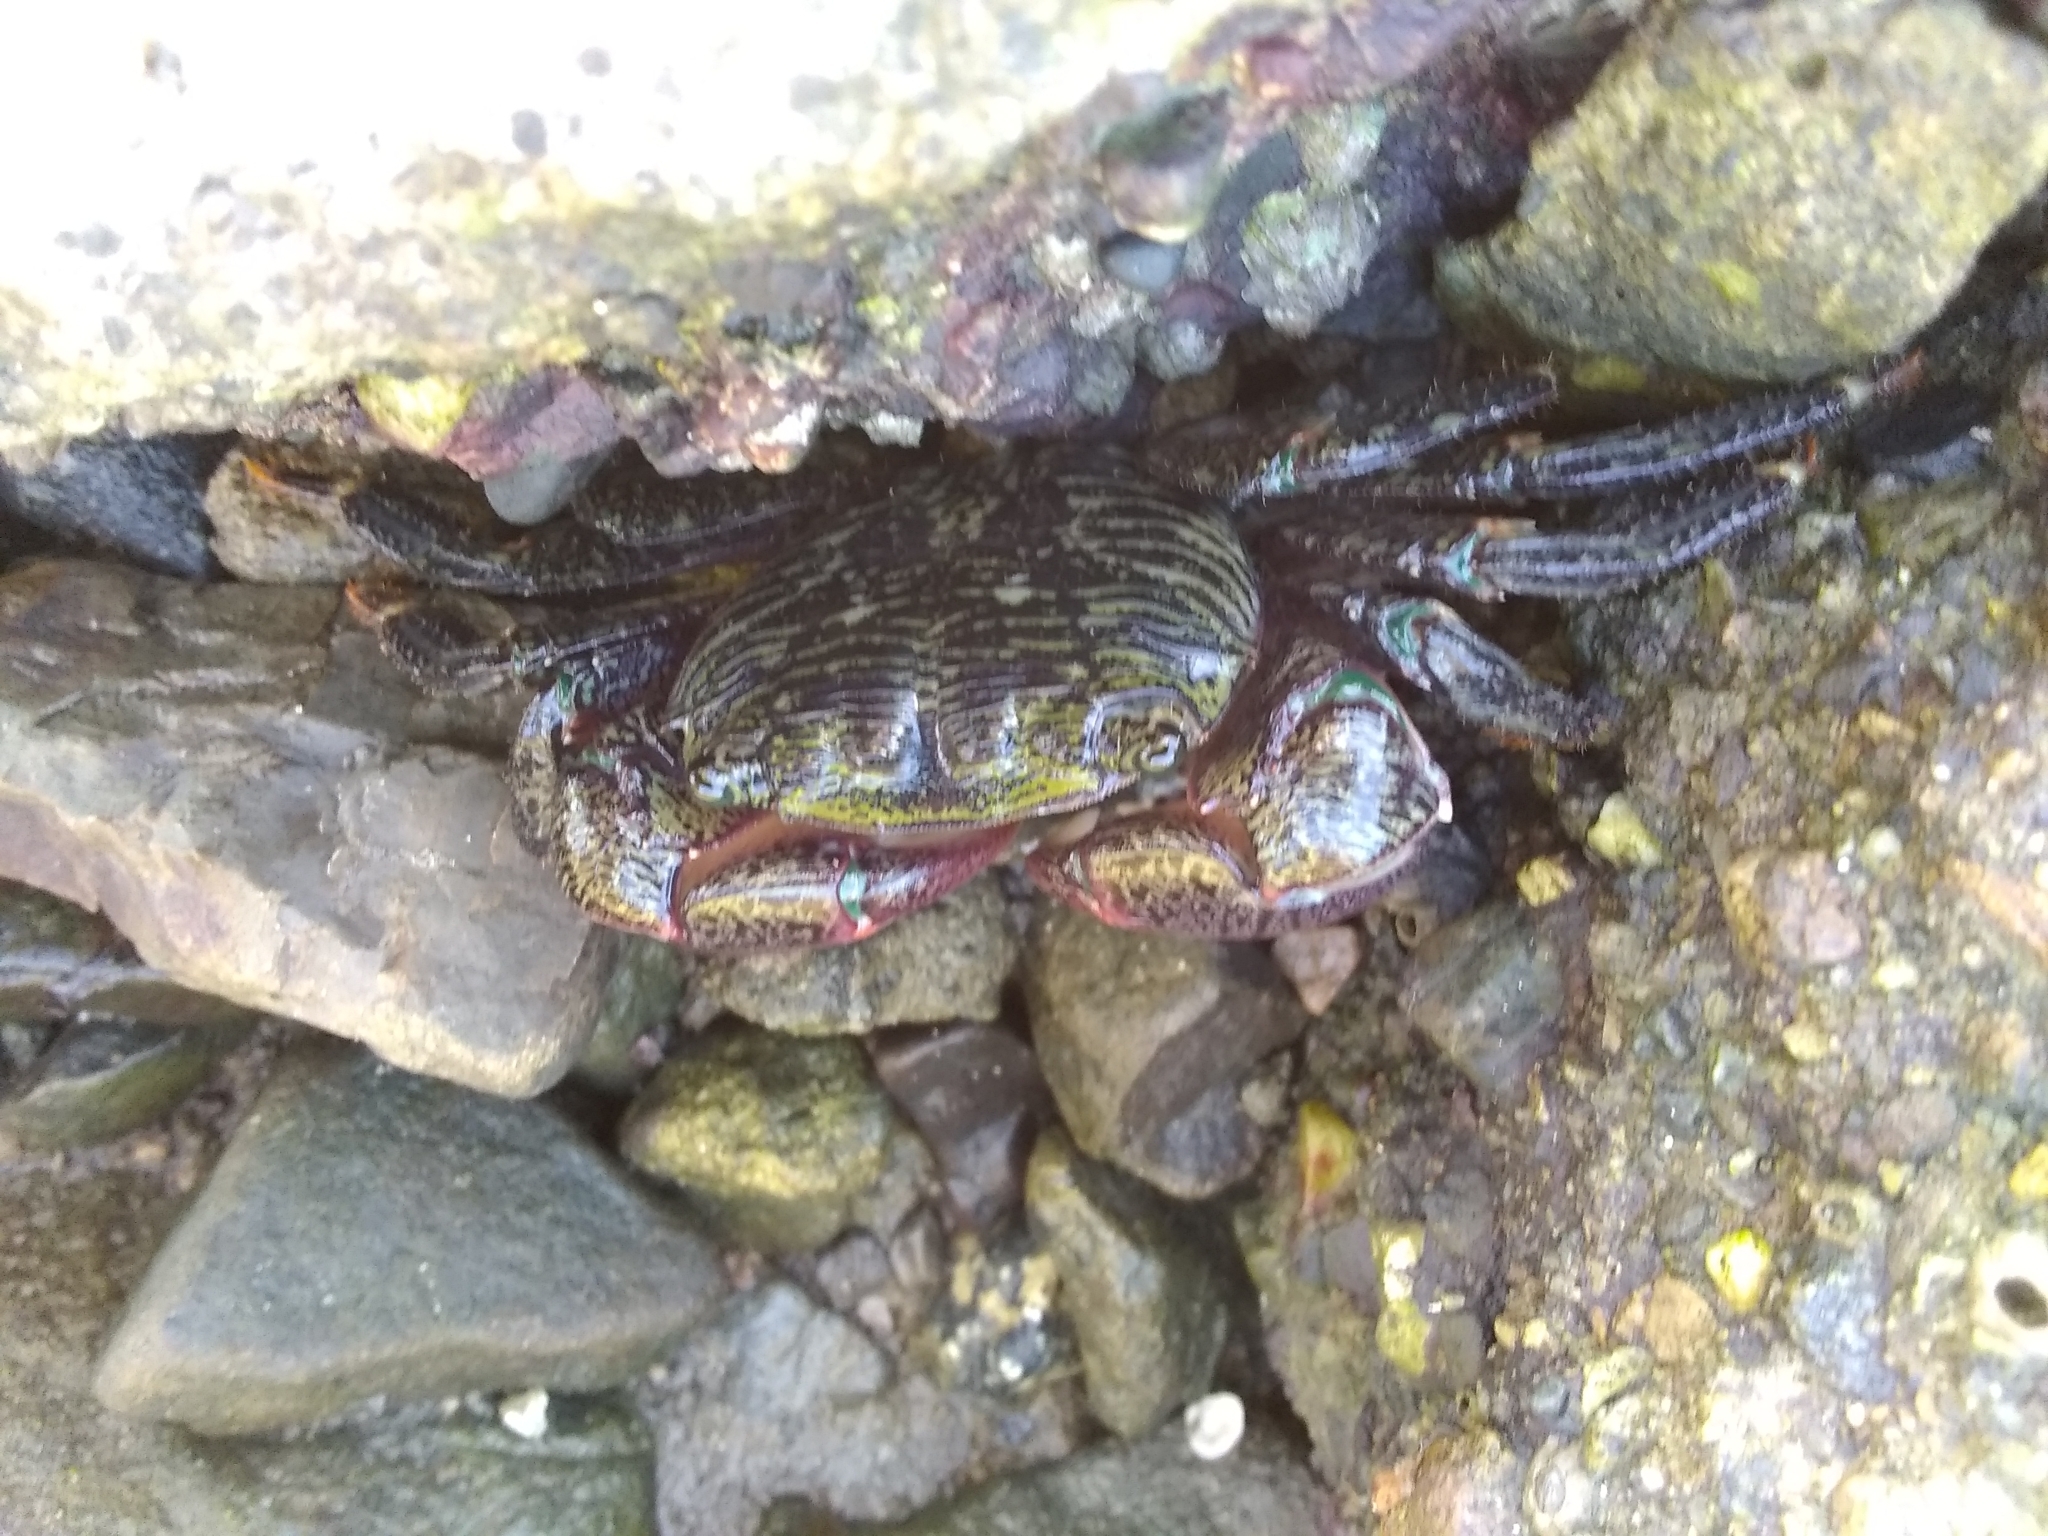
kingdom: Animalia
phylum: Arthropoda
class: Malacostraca
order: Decapoda
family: Grapsidae
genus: Pachygrapsus
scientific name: Pachygrapsus crassipes
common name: Striped shore crab
